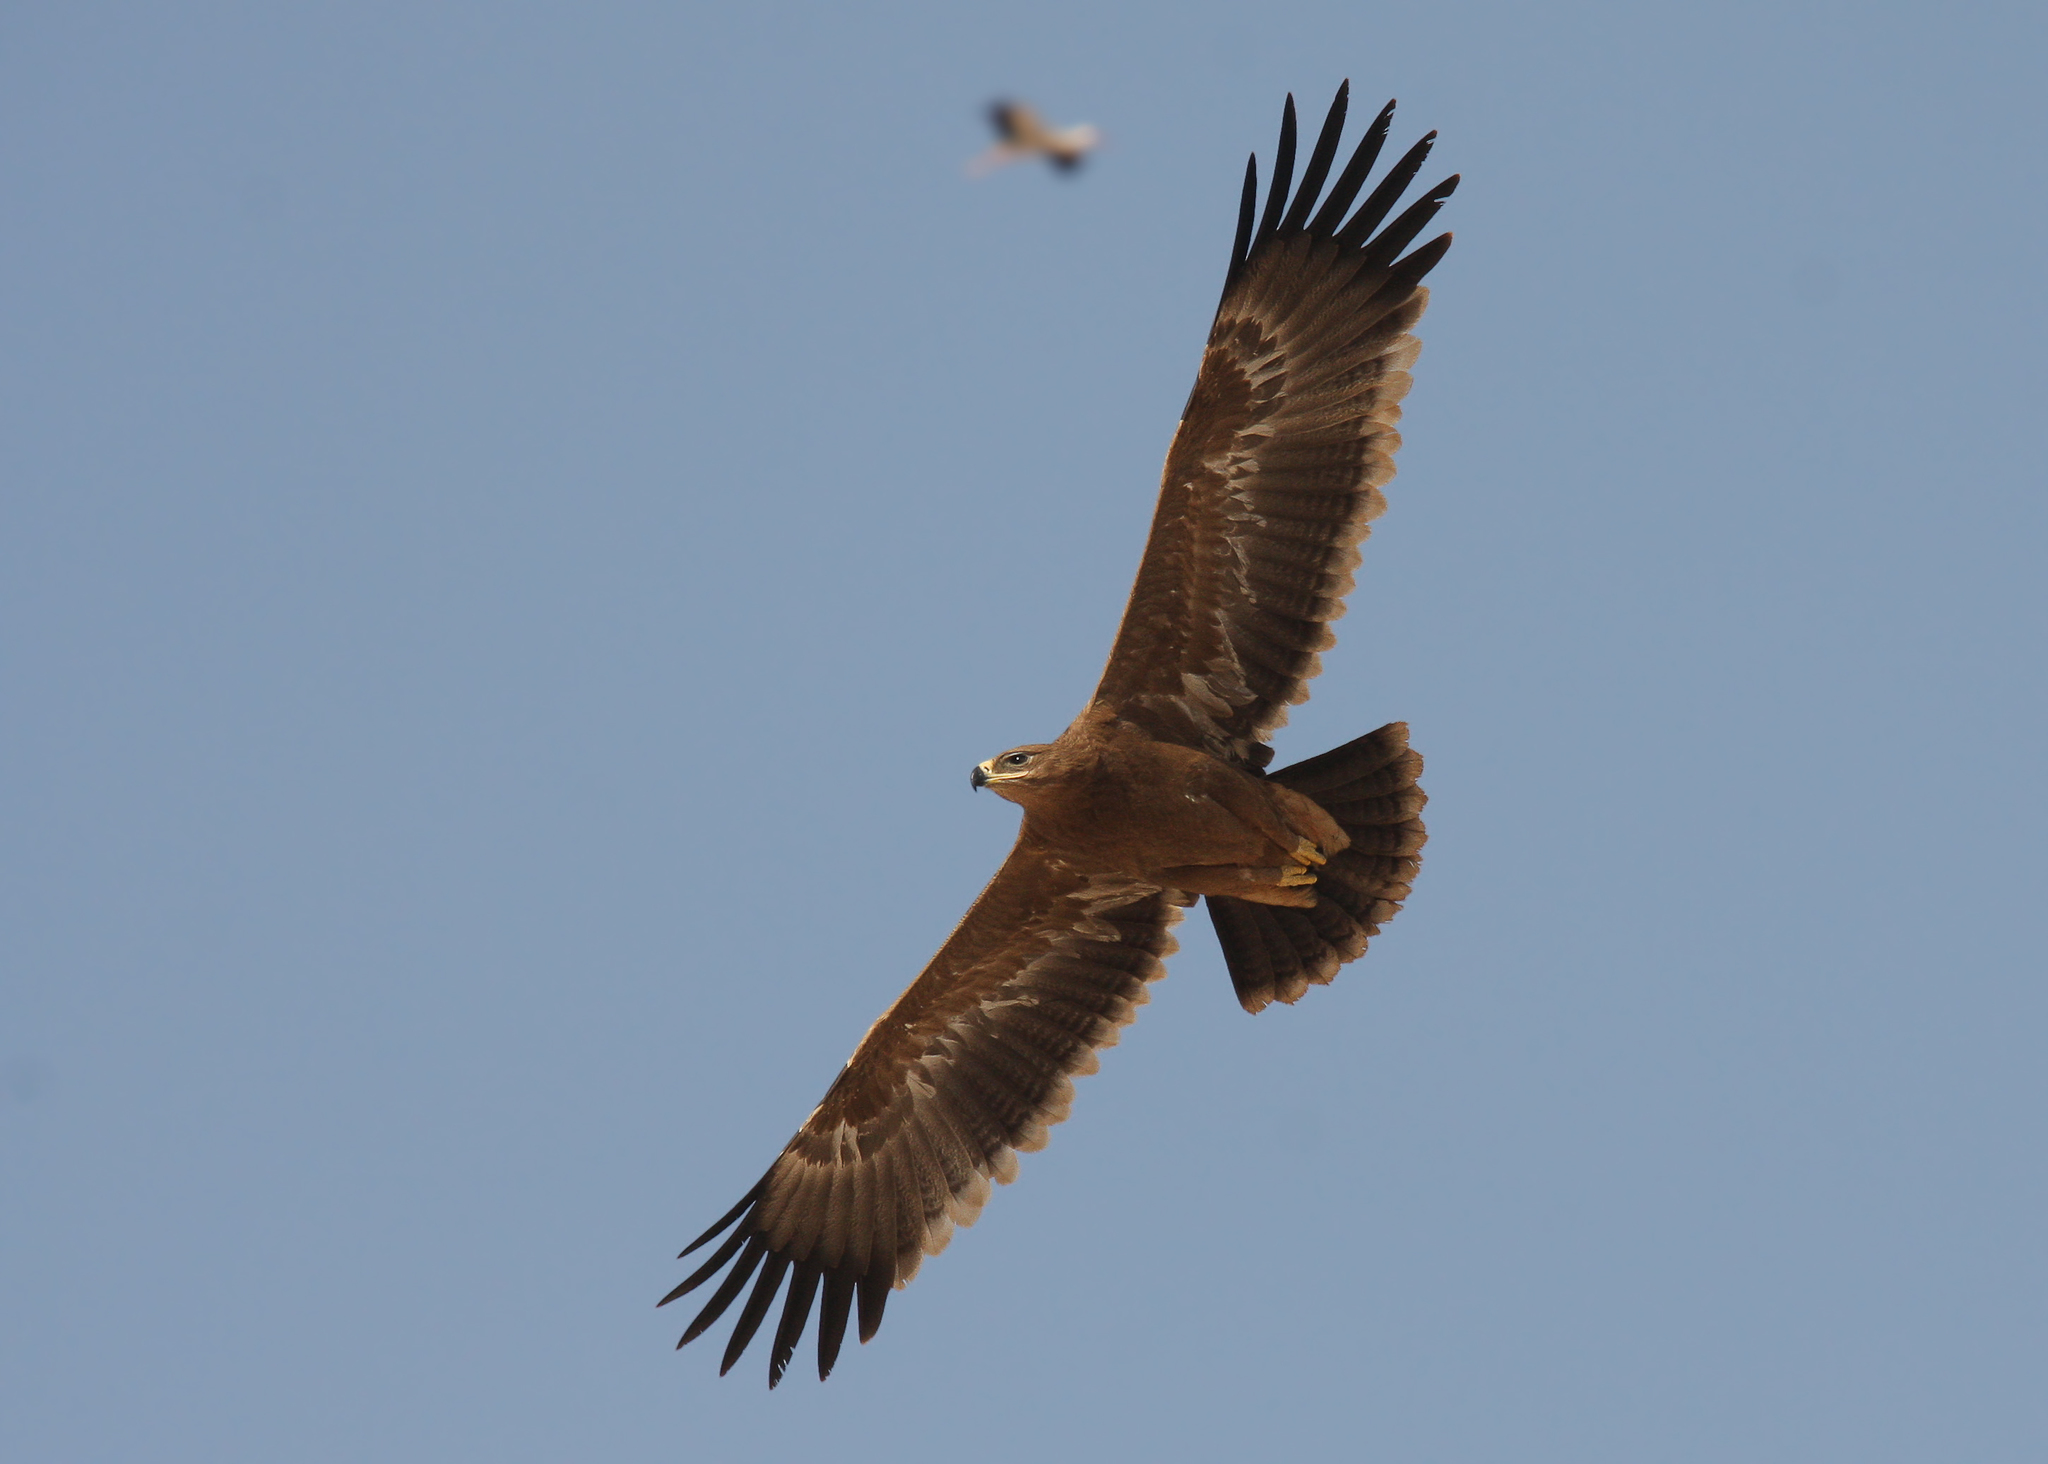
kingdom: Animalia
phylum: Chordata
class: Aves
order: Accipitriformes
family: Accipitridae
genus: Aquila
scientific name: Aquila nipalensis
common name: Steppe eagle
